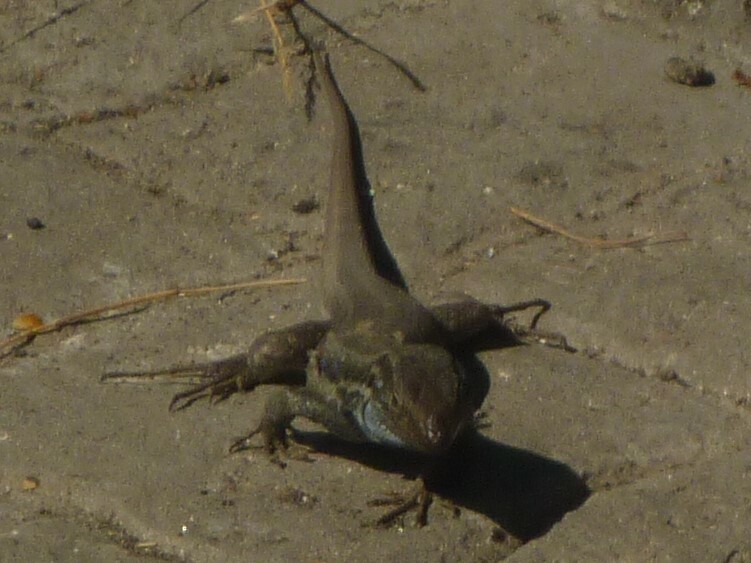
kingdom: Animalia
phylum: Chordata
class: Squamata
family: Lacertidae
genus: Gallotia
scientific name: Gallotia galloti
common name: Gallot's lizard
